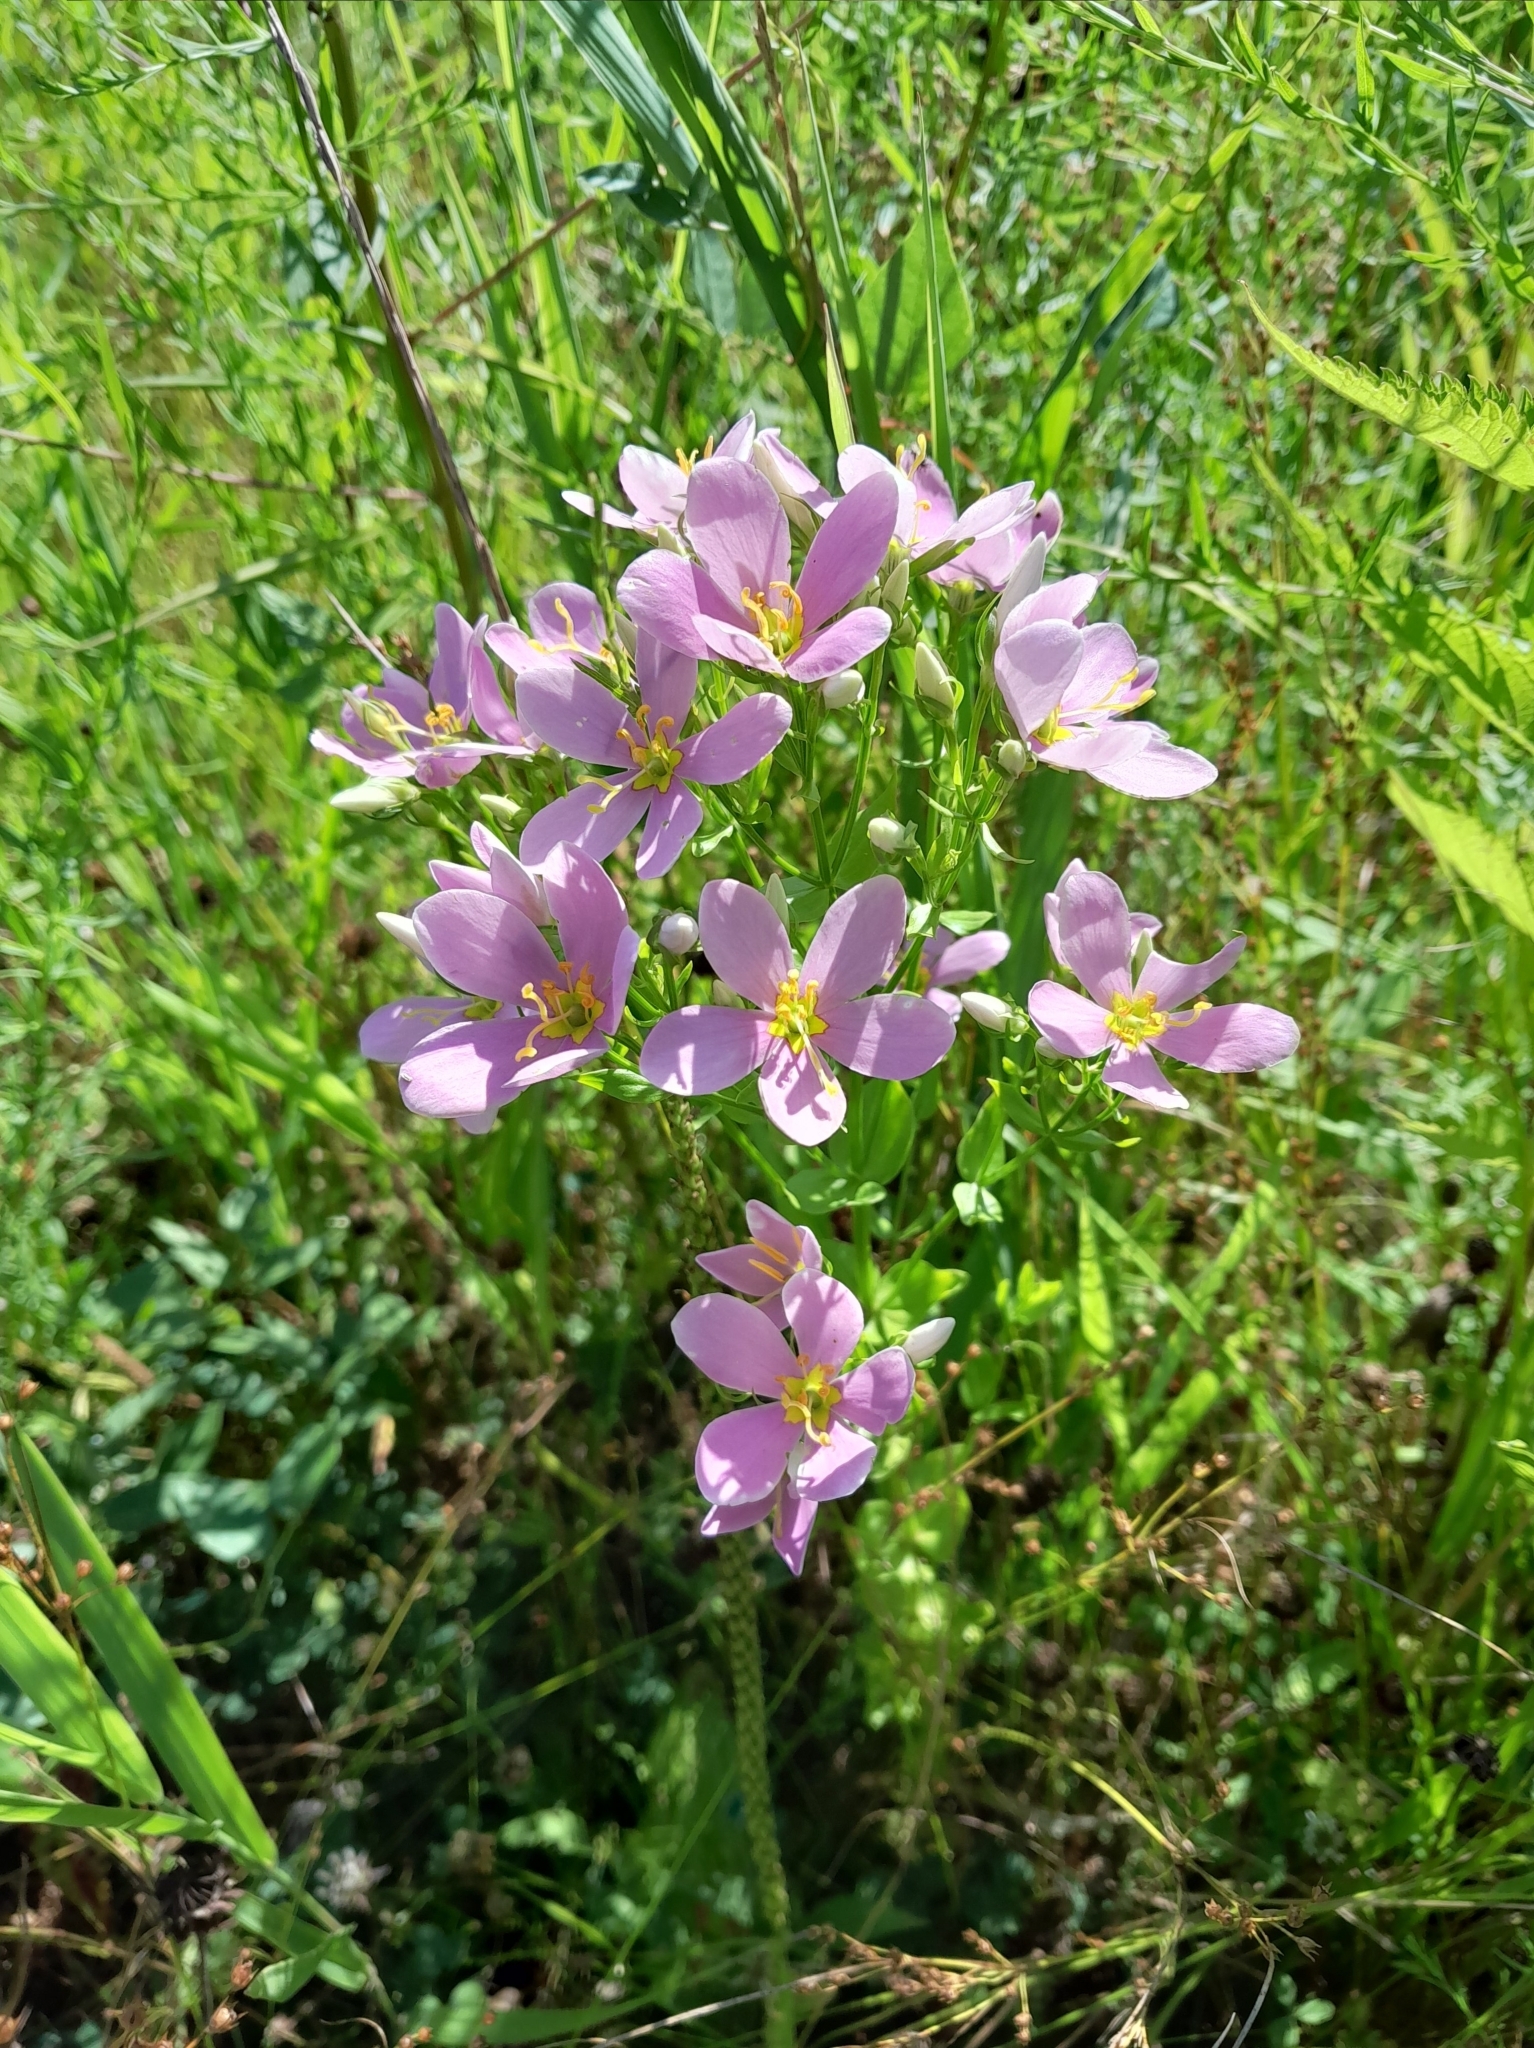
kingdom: Plantae
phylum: Tracheophyta
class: Magnoliopsida
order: Gentianales
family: Gentianaceae
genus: Sabatia
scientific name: Sabatia angularis
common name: Rose-pink
